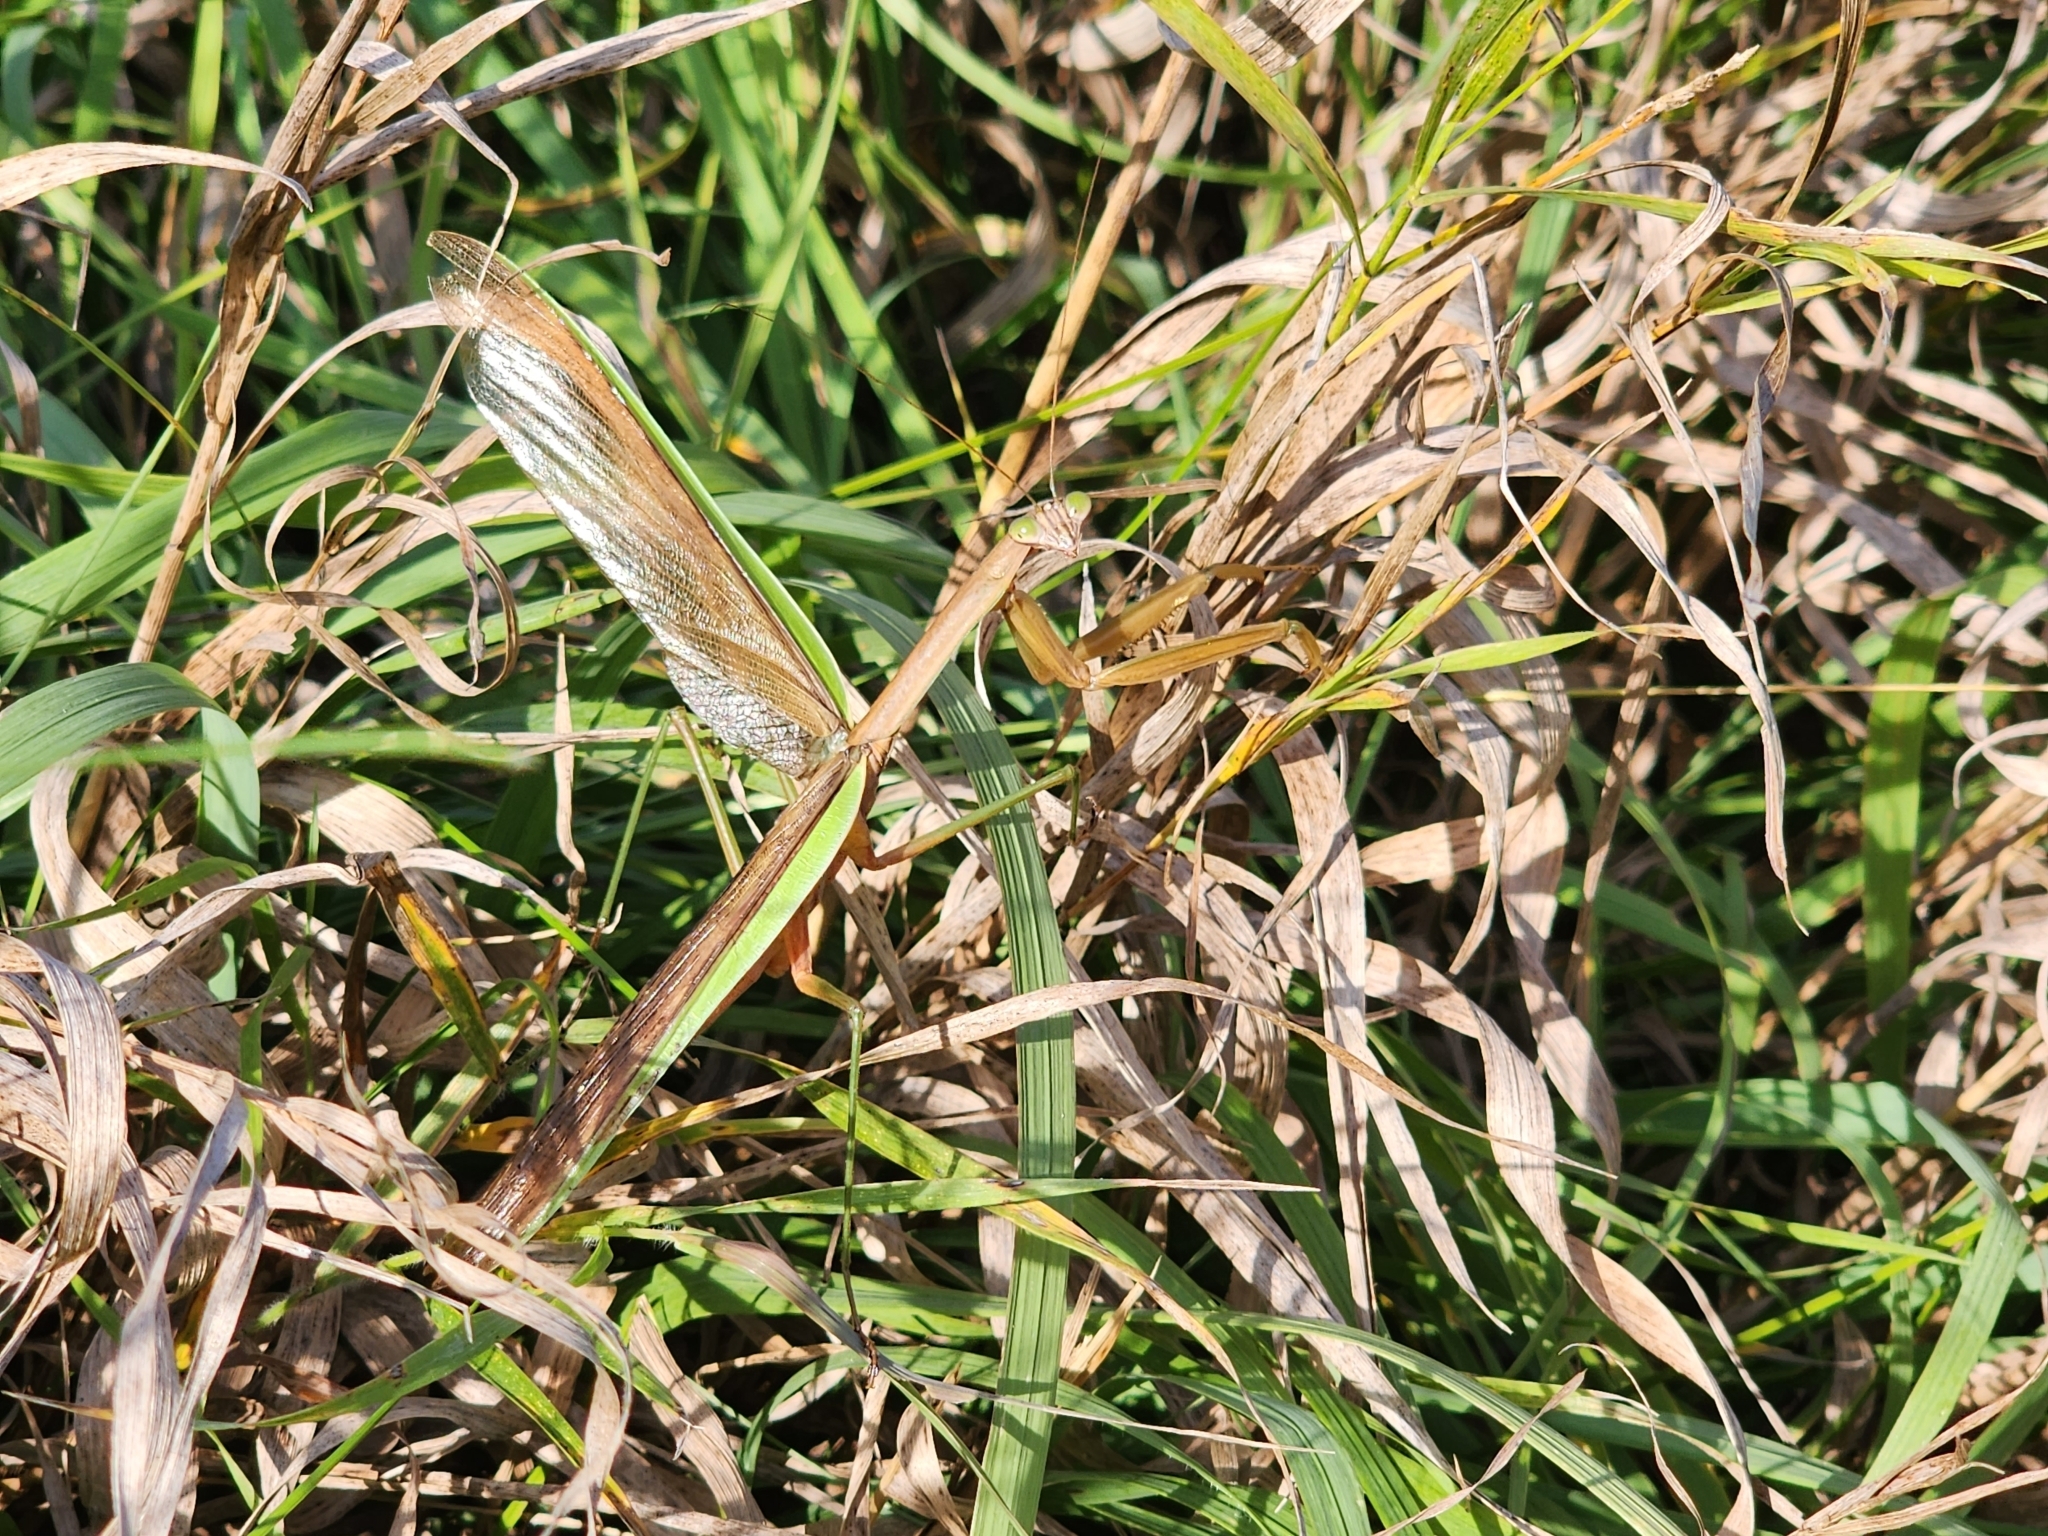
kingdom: Animalia
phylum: Arthropoda
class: Insecta
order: Mantodea
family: Mantidae
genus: Tenodera
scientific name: Tenodera sinensis
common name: Chinese mantis
